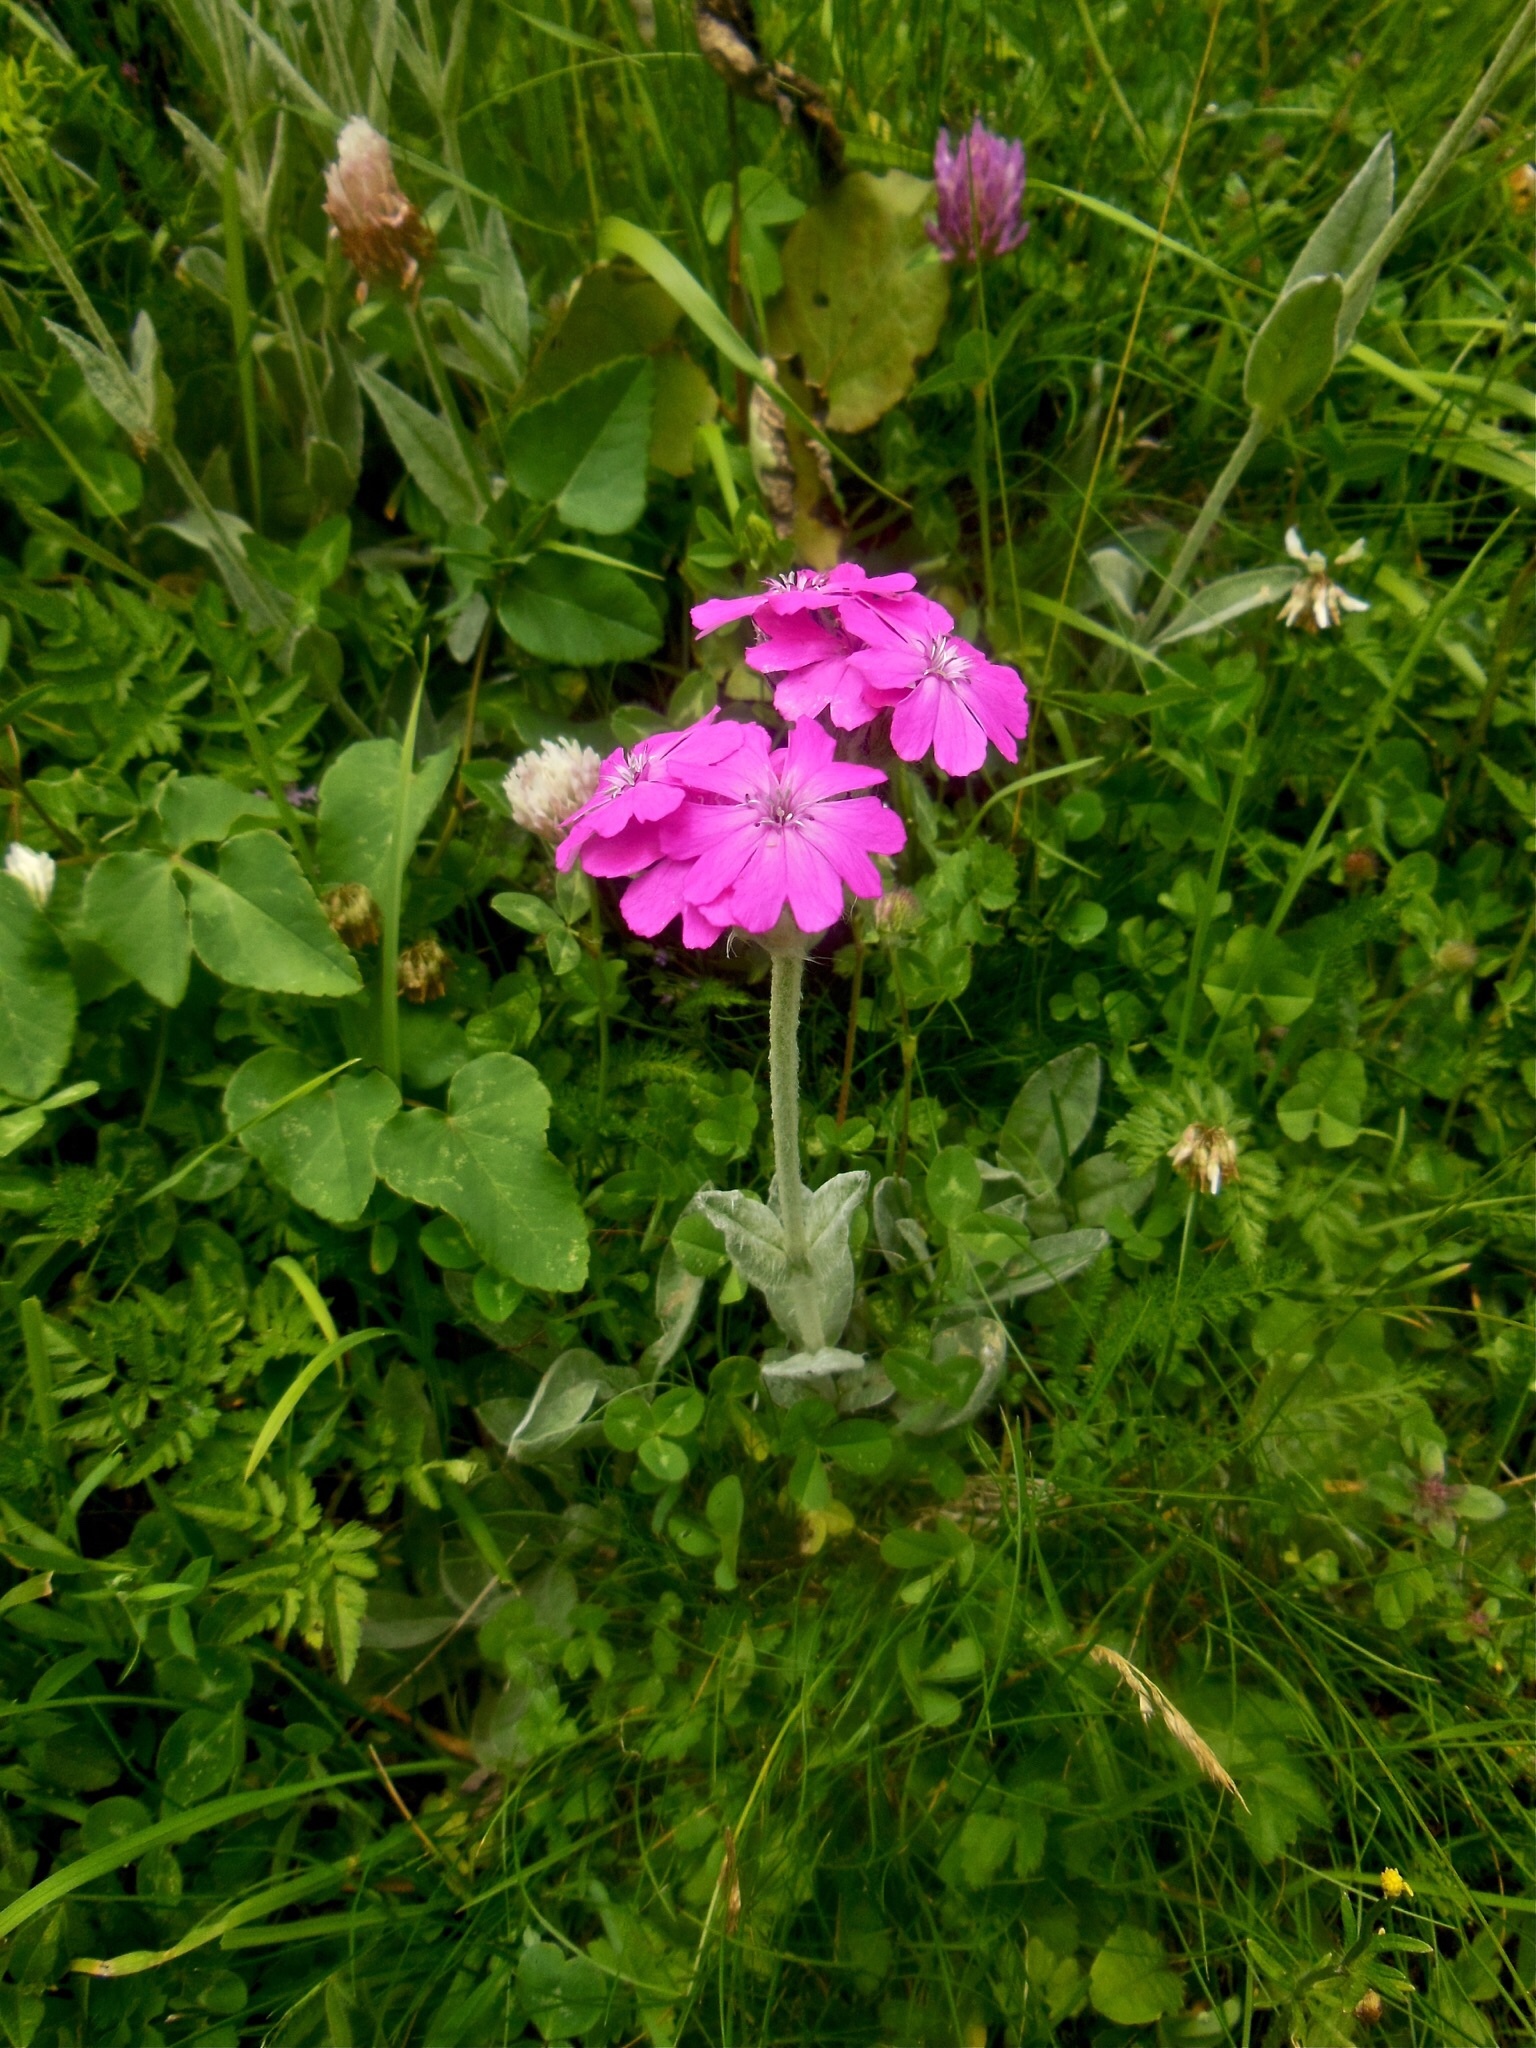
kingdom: Plantae
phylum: Tracheophyta
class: Magnoliopsida
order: Caryophyllales
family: Caryophyllaceae
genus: Silene
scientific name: Silene flos-jovis
